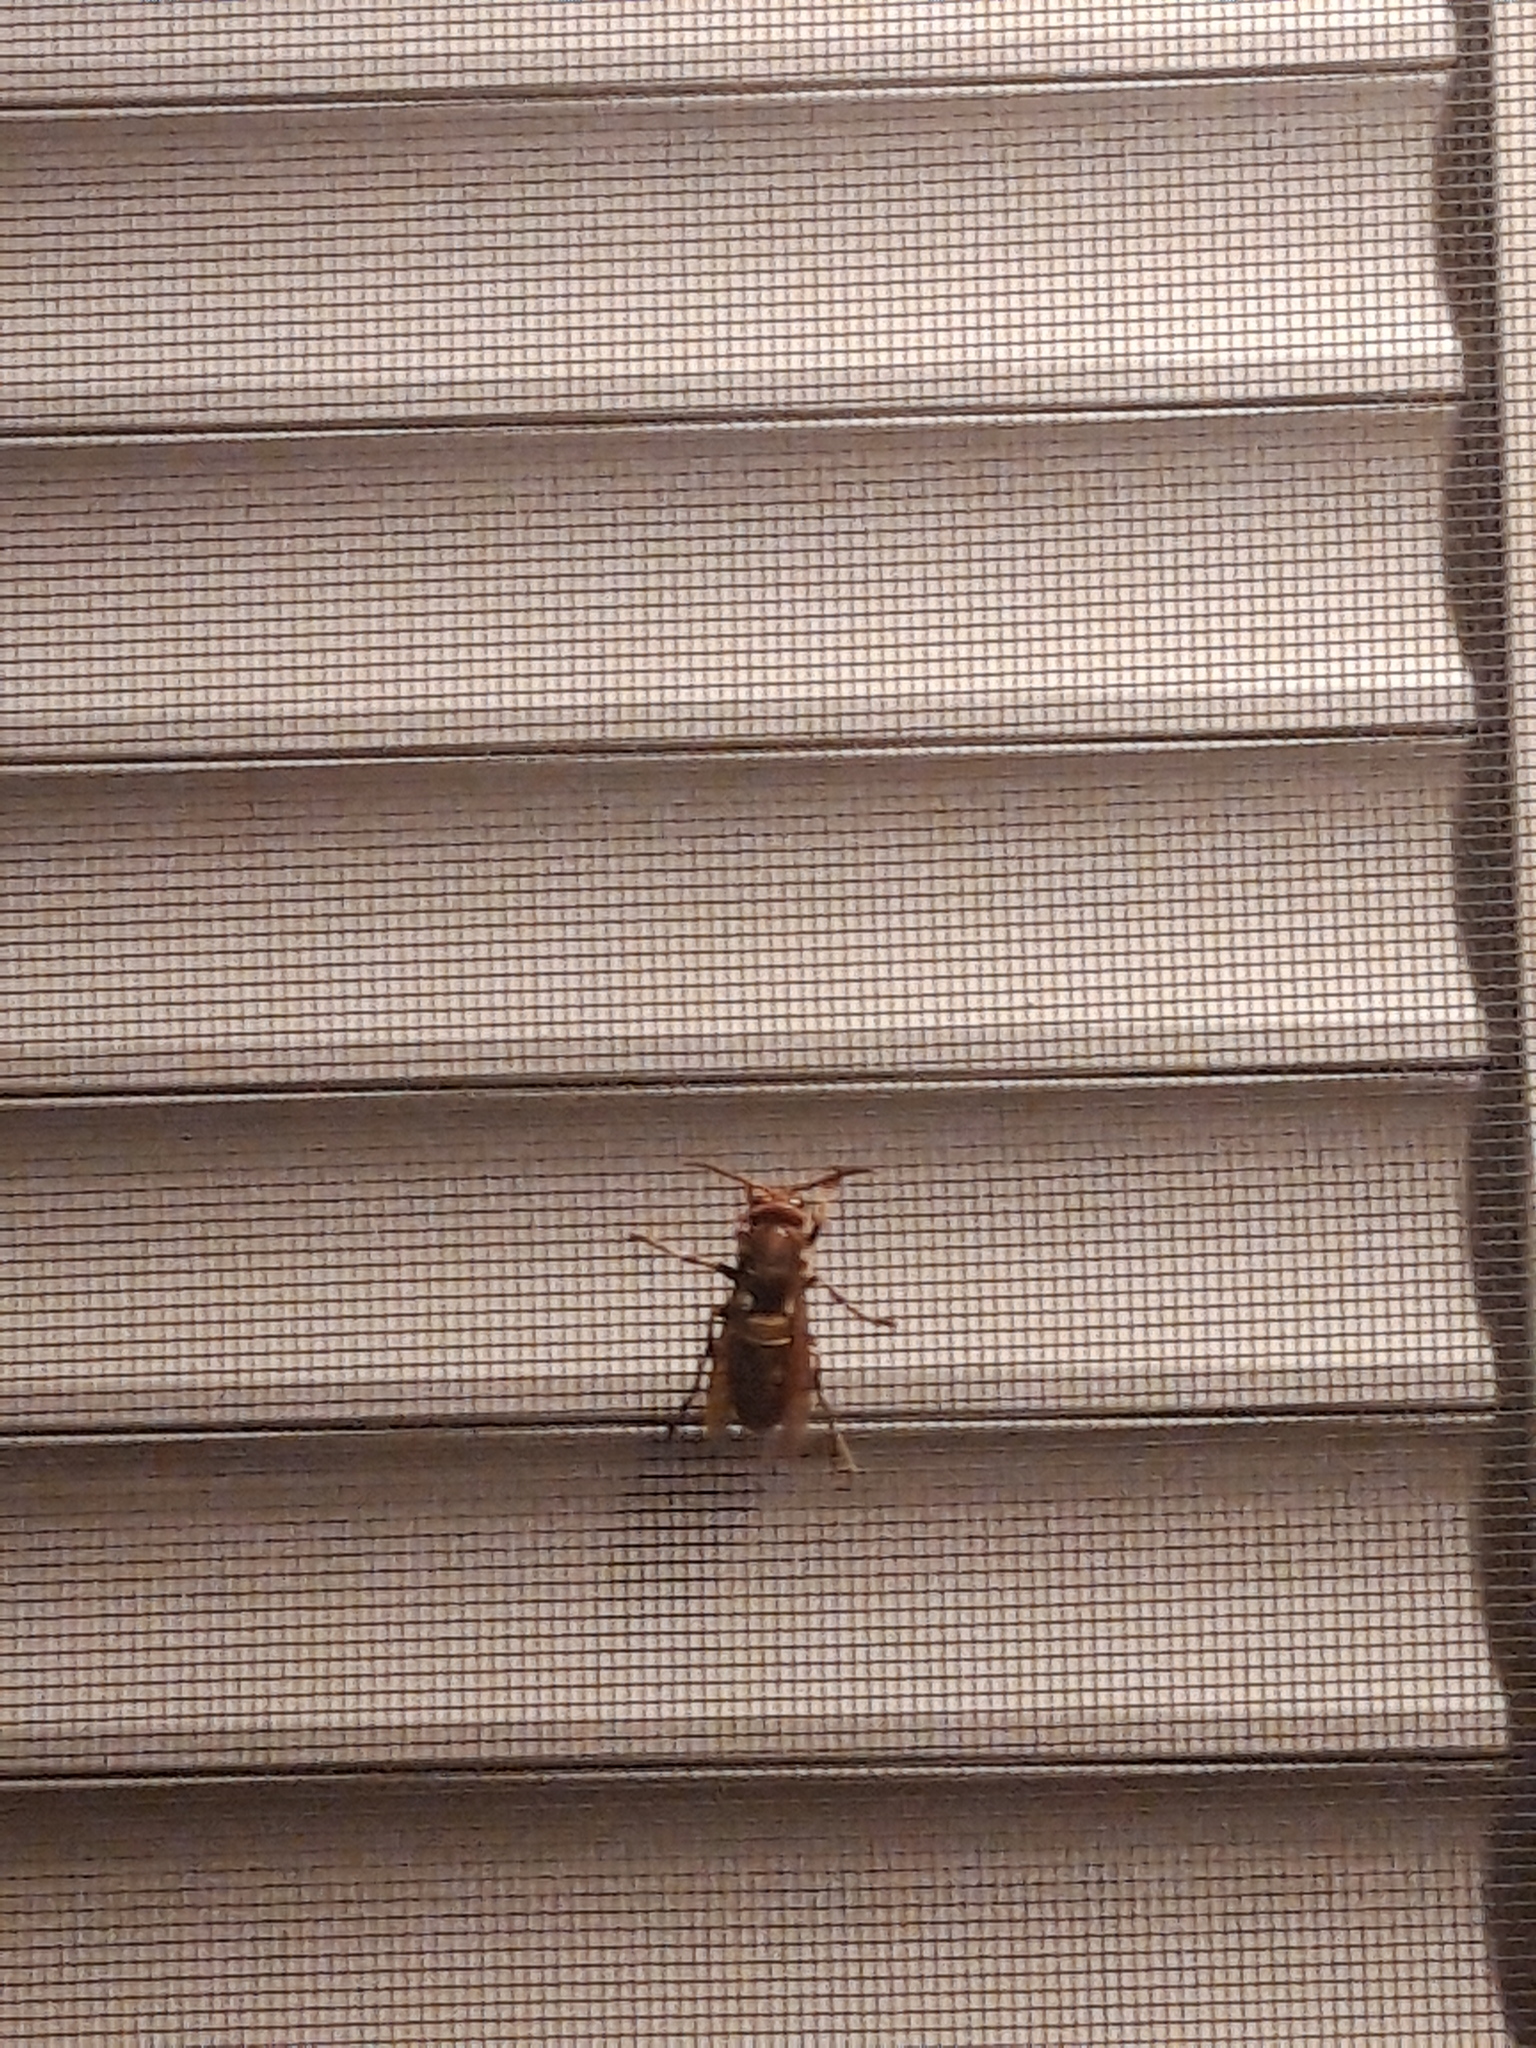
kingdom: Animalia
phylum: Arthropoda
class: Insecta
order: Hymenoptera
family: Vespidae
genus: Vespa
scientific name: Vespa velutina
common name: Asian hornet
